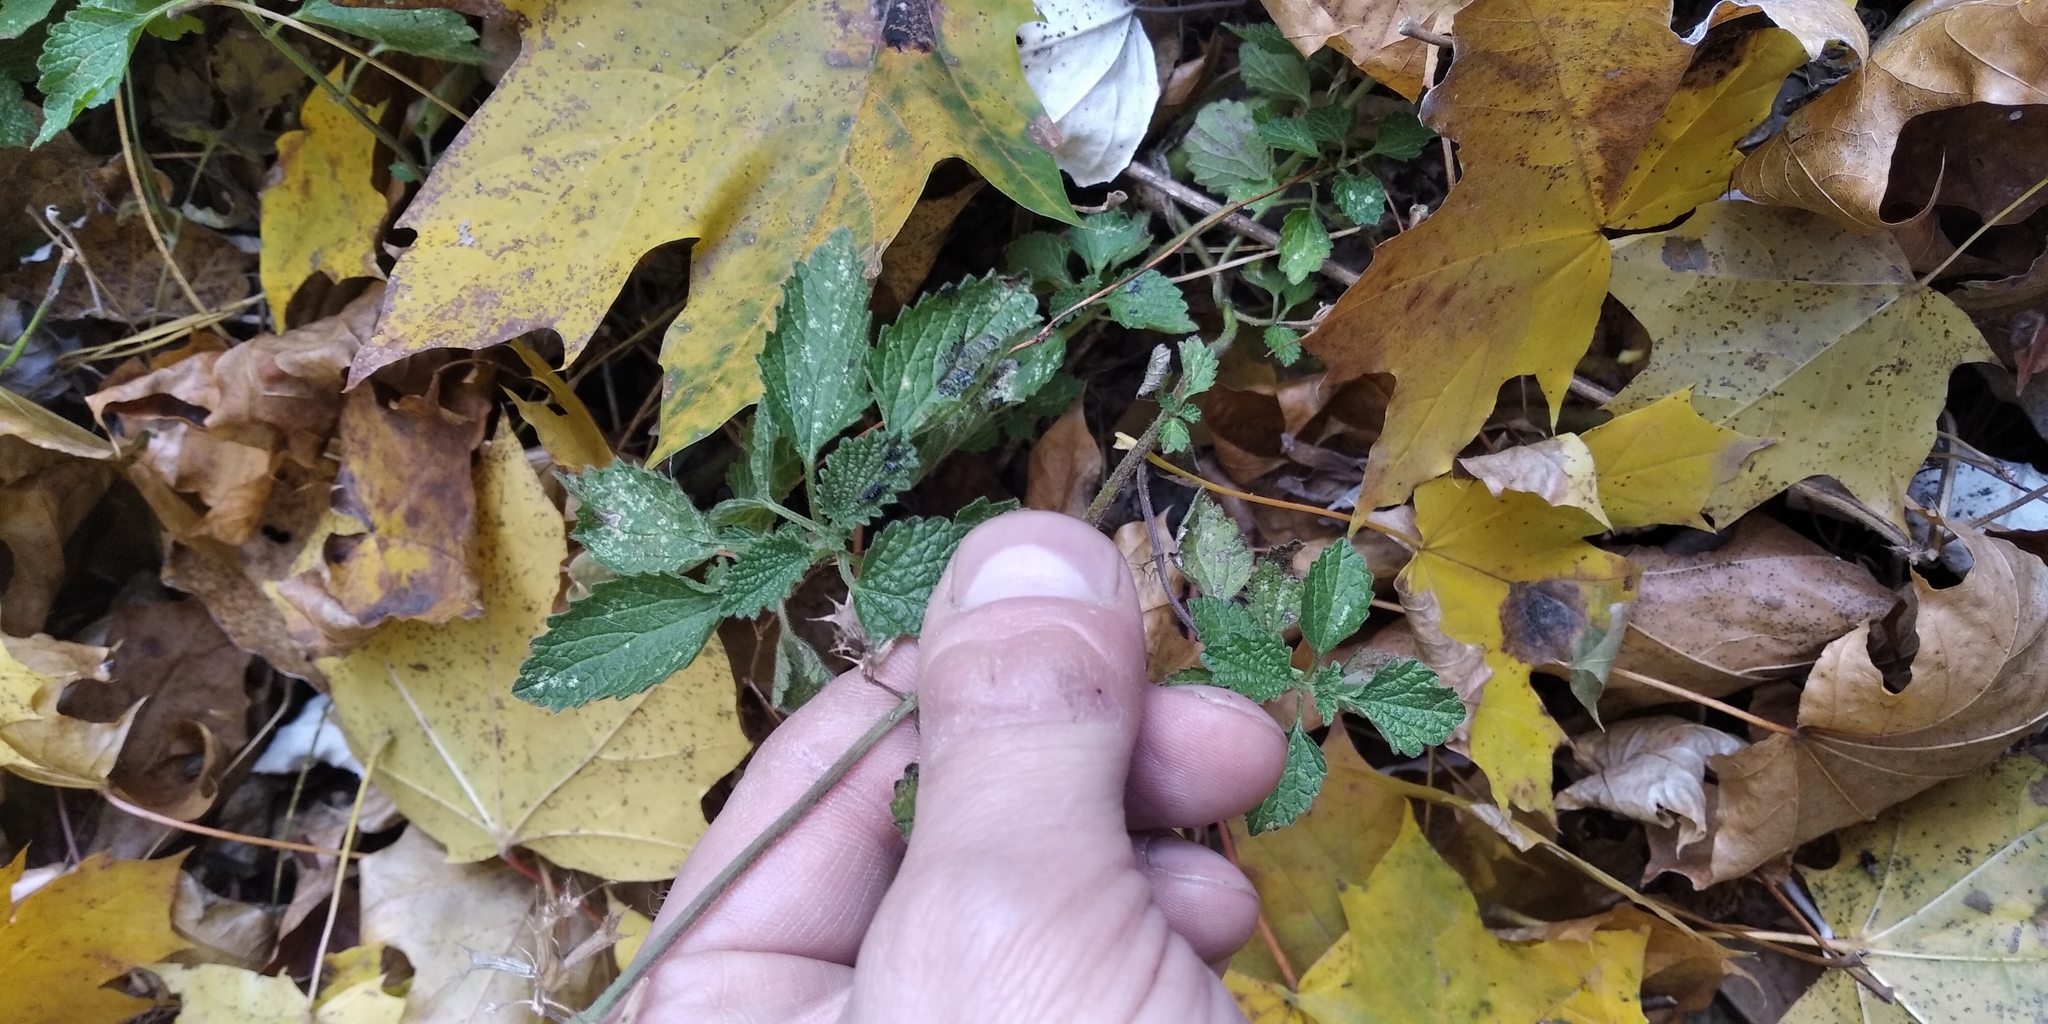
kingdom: Plantae
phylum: Tracheophyta
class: Magnoliopsida
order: Lamiales
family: Lamiaceae
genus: Ballota
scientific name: Ballota nigra
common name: Black horehound
